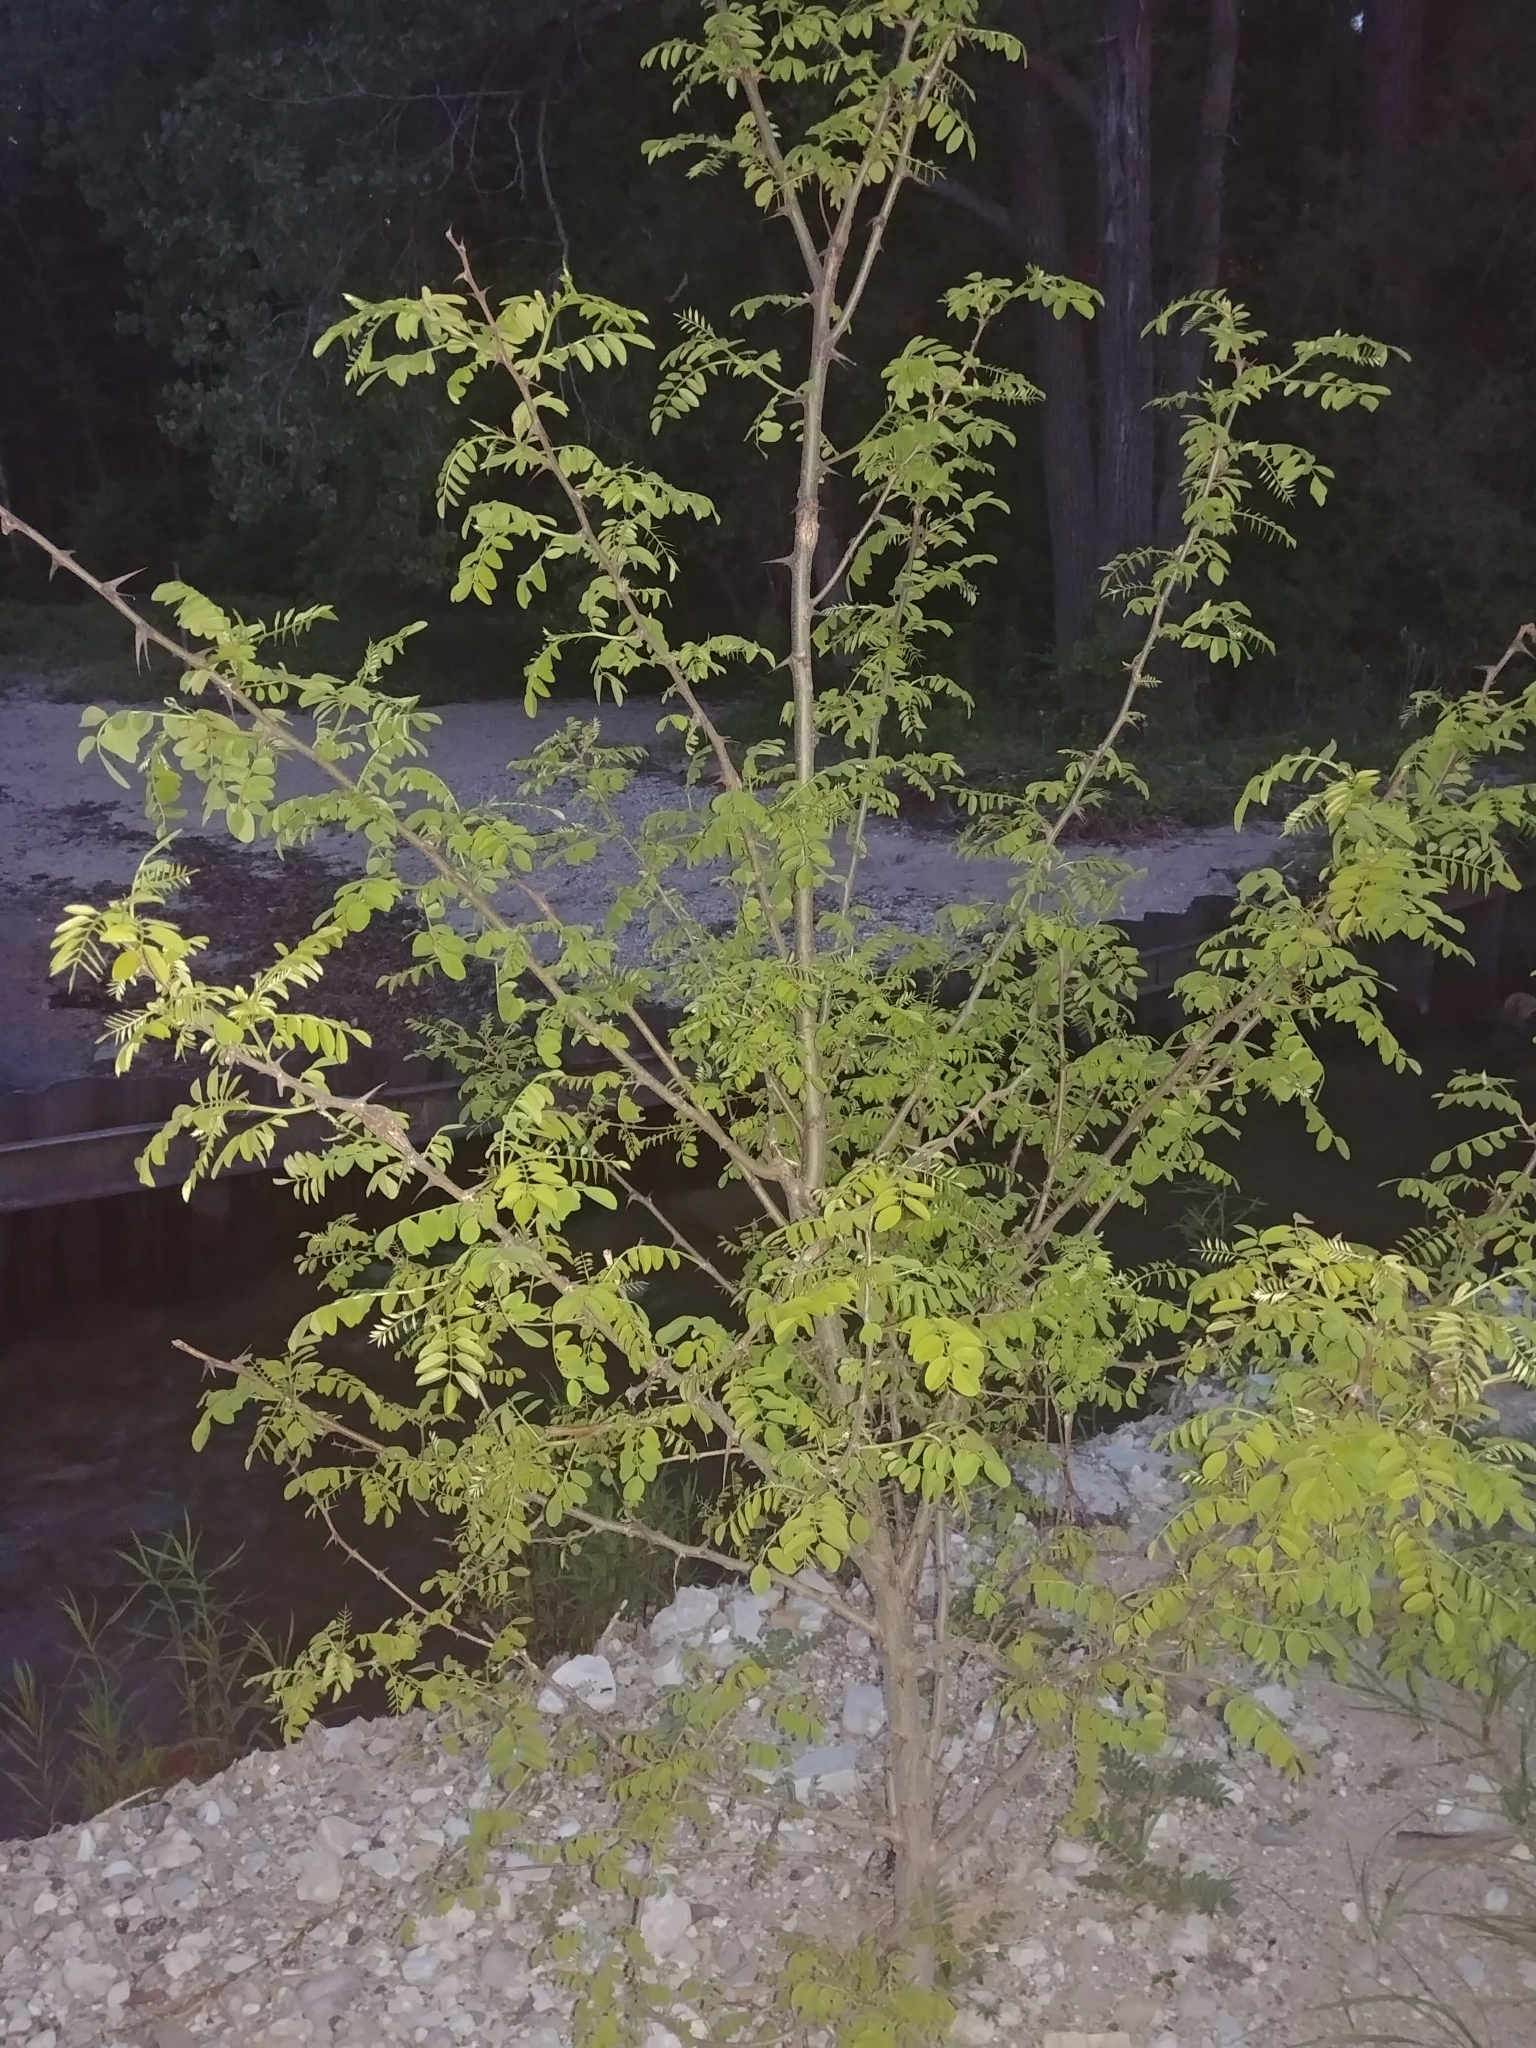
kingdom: Plantae
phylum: Tracheophyta
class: Magnoliopsida
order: Fabales
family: Fabaceae
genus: Gleditsia
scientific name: Gleditsia triacanthos
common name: Common honeylocust
